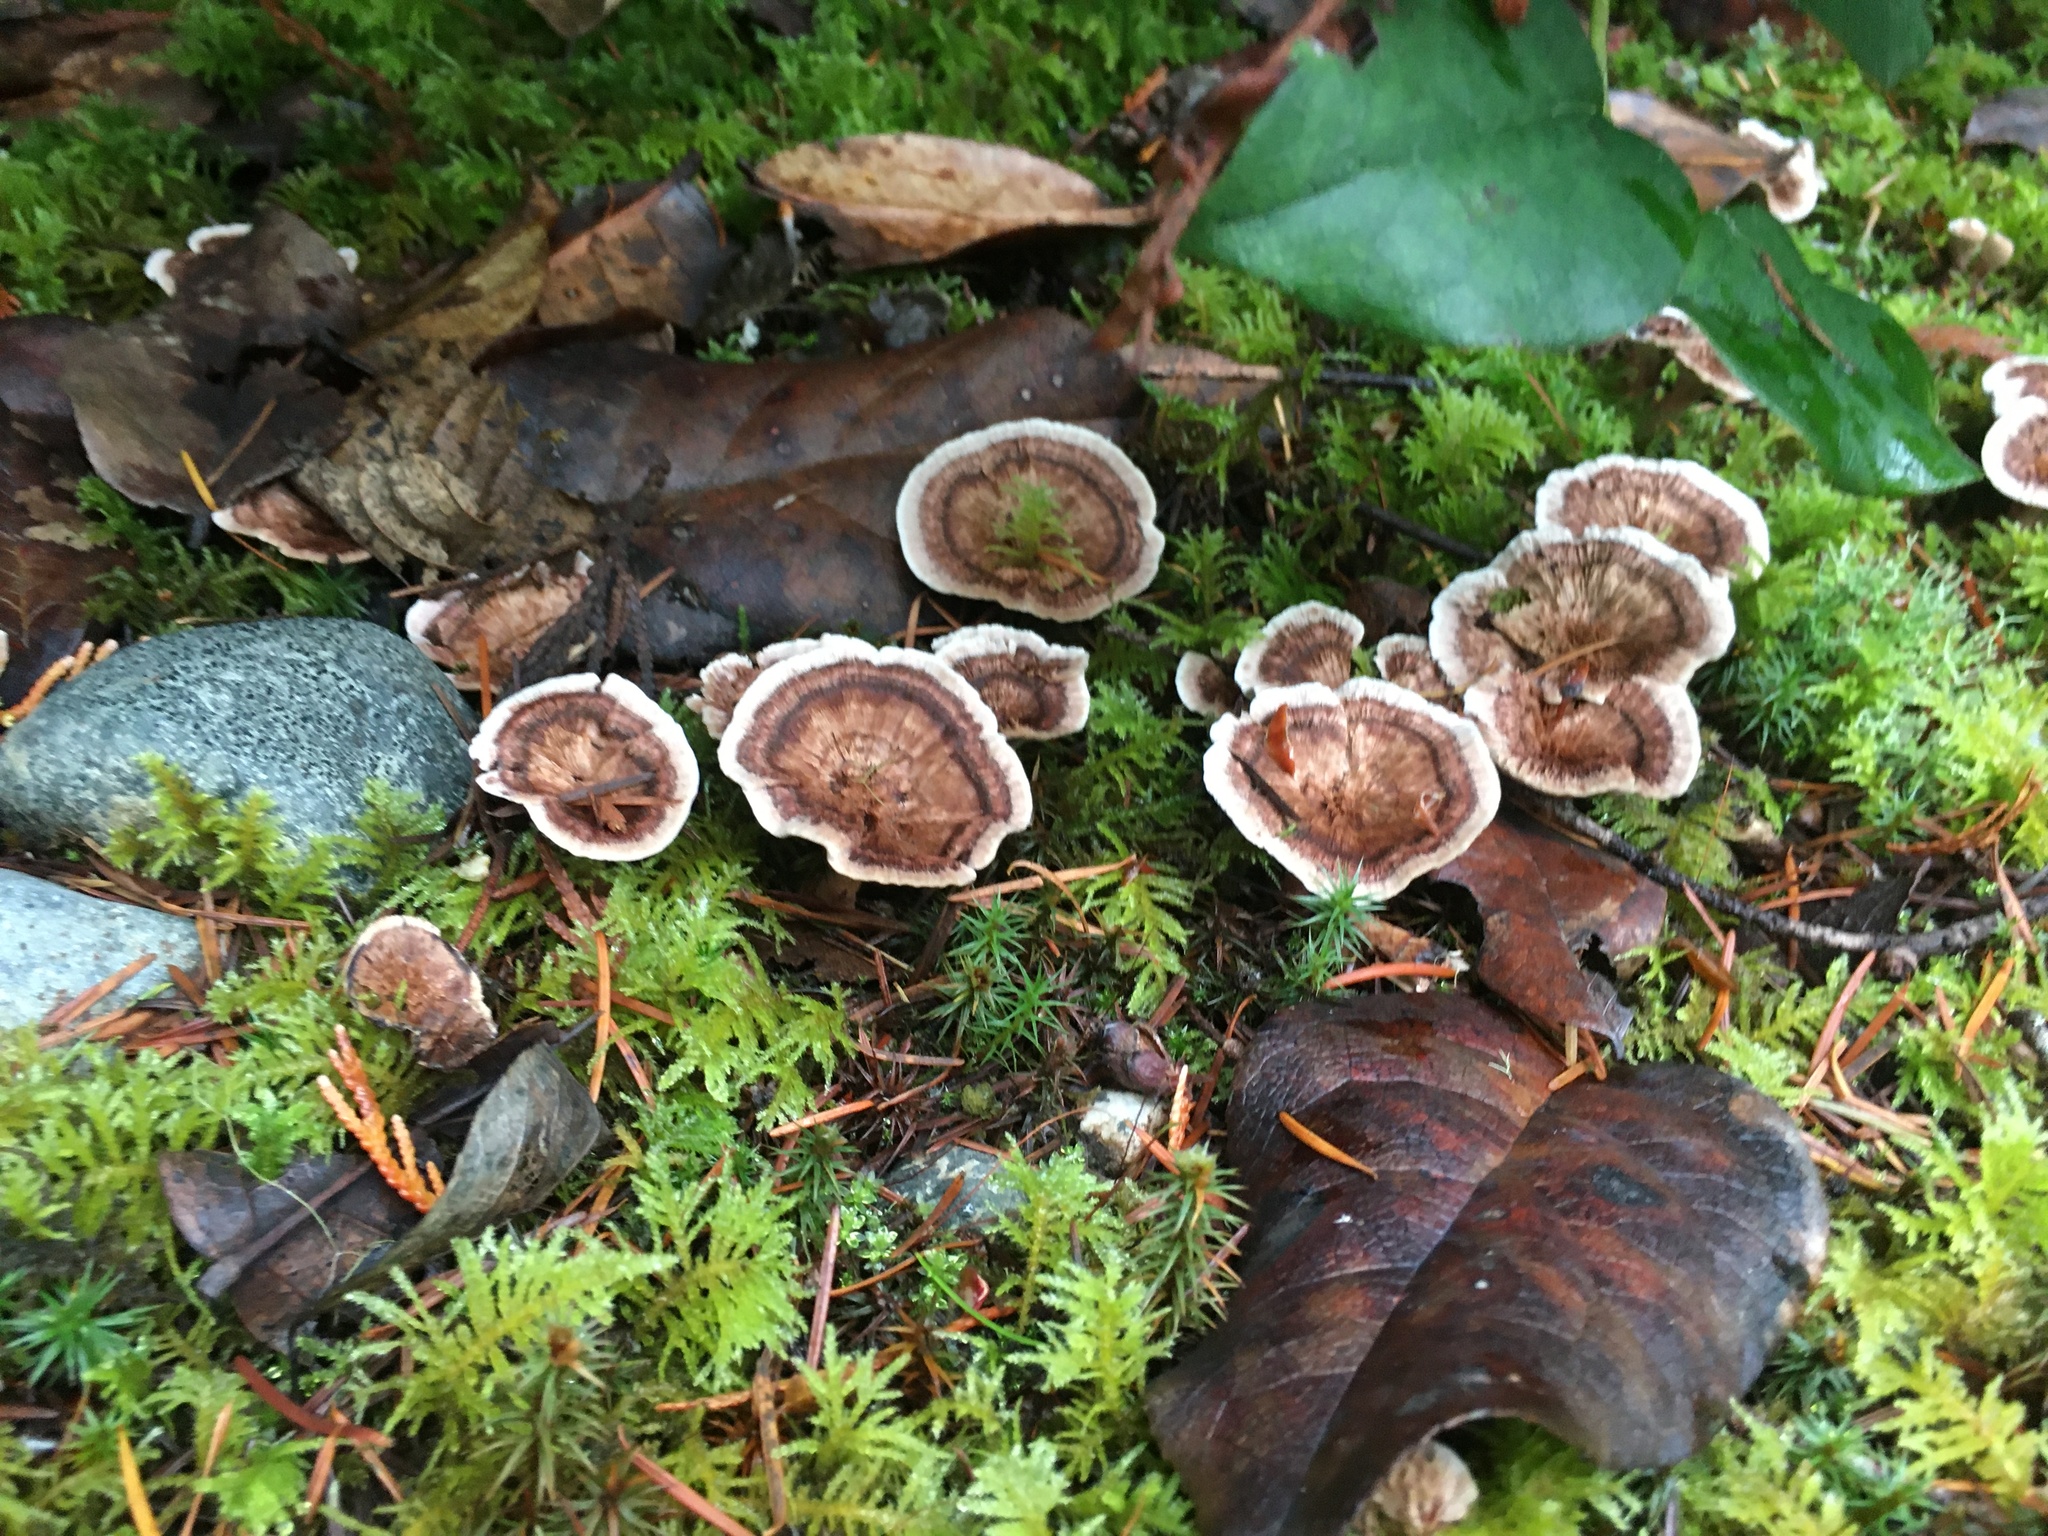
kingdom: Fungi
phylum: Basidiomycota
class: Agaricomycetes
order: Hymenochaetales
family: Hymenochaetaceae
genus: Coltricia
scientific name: Coltricia perennis
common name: Tiger's eye
